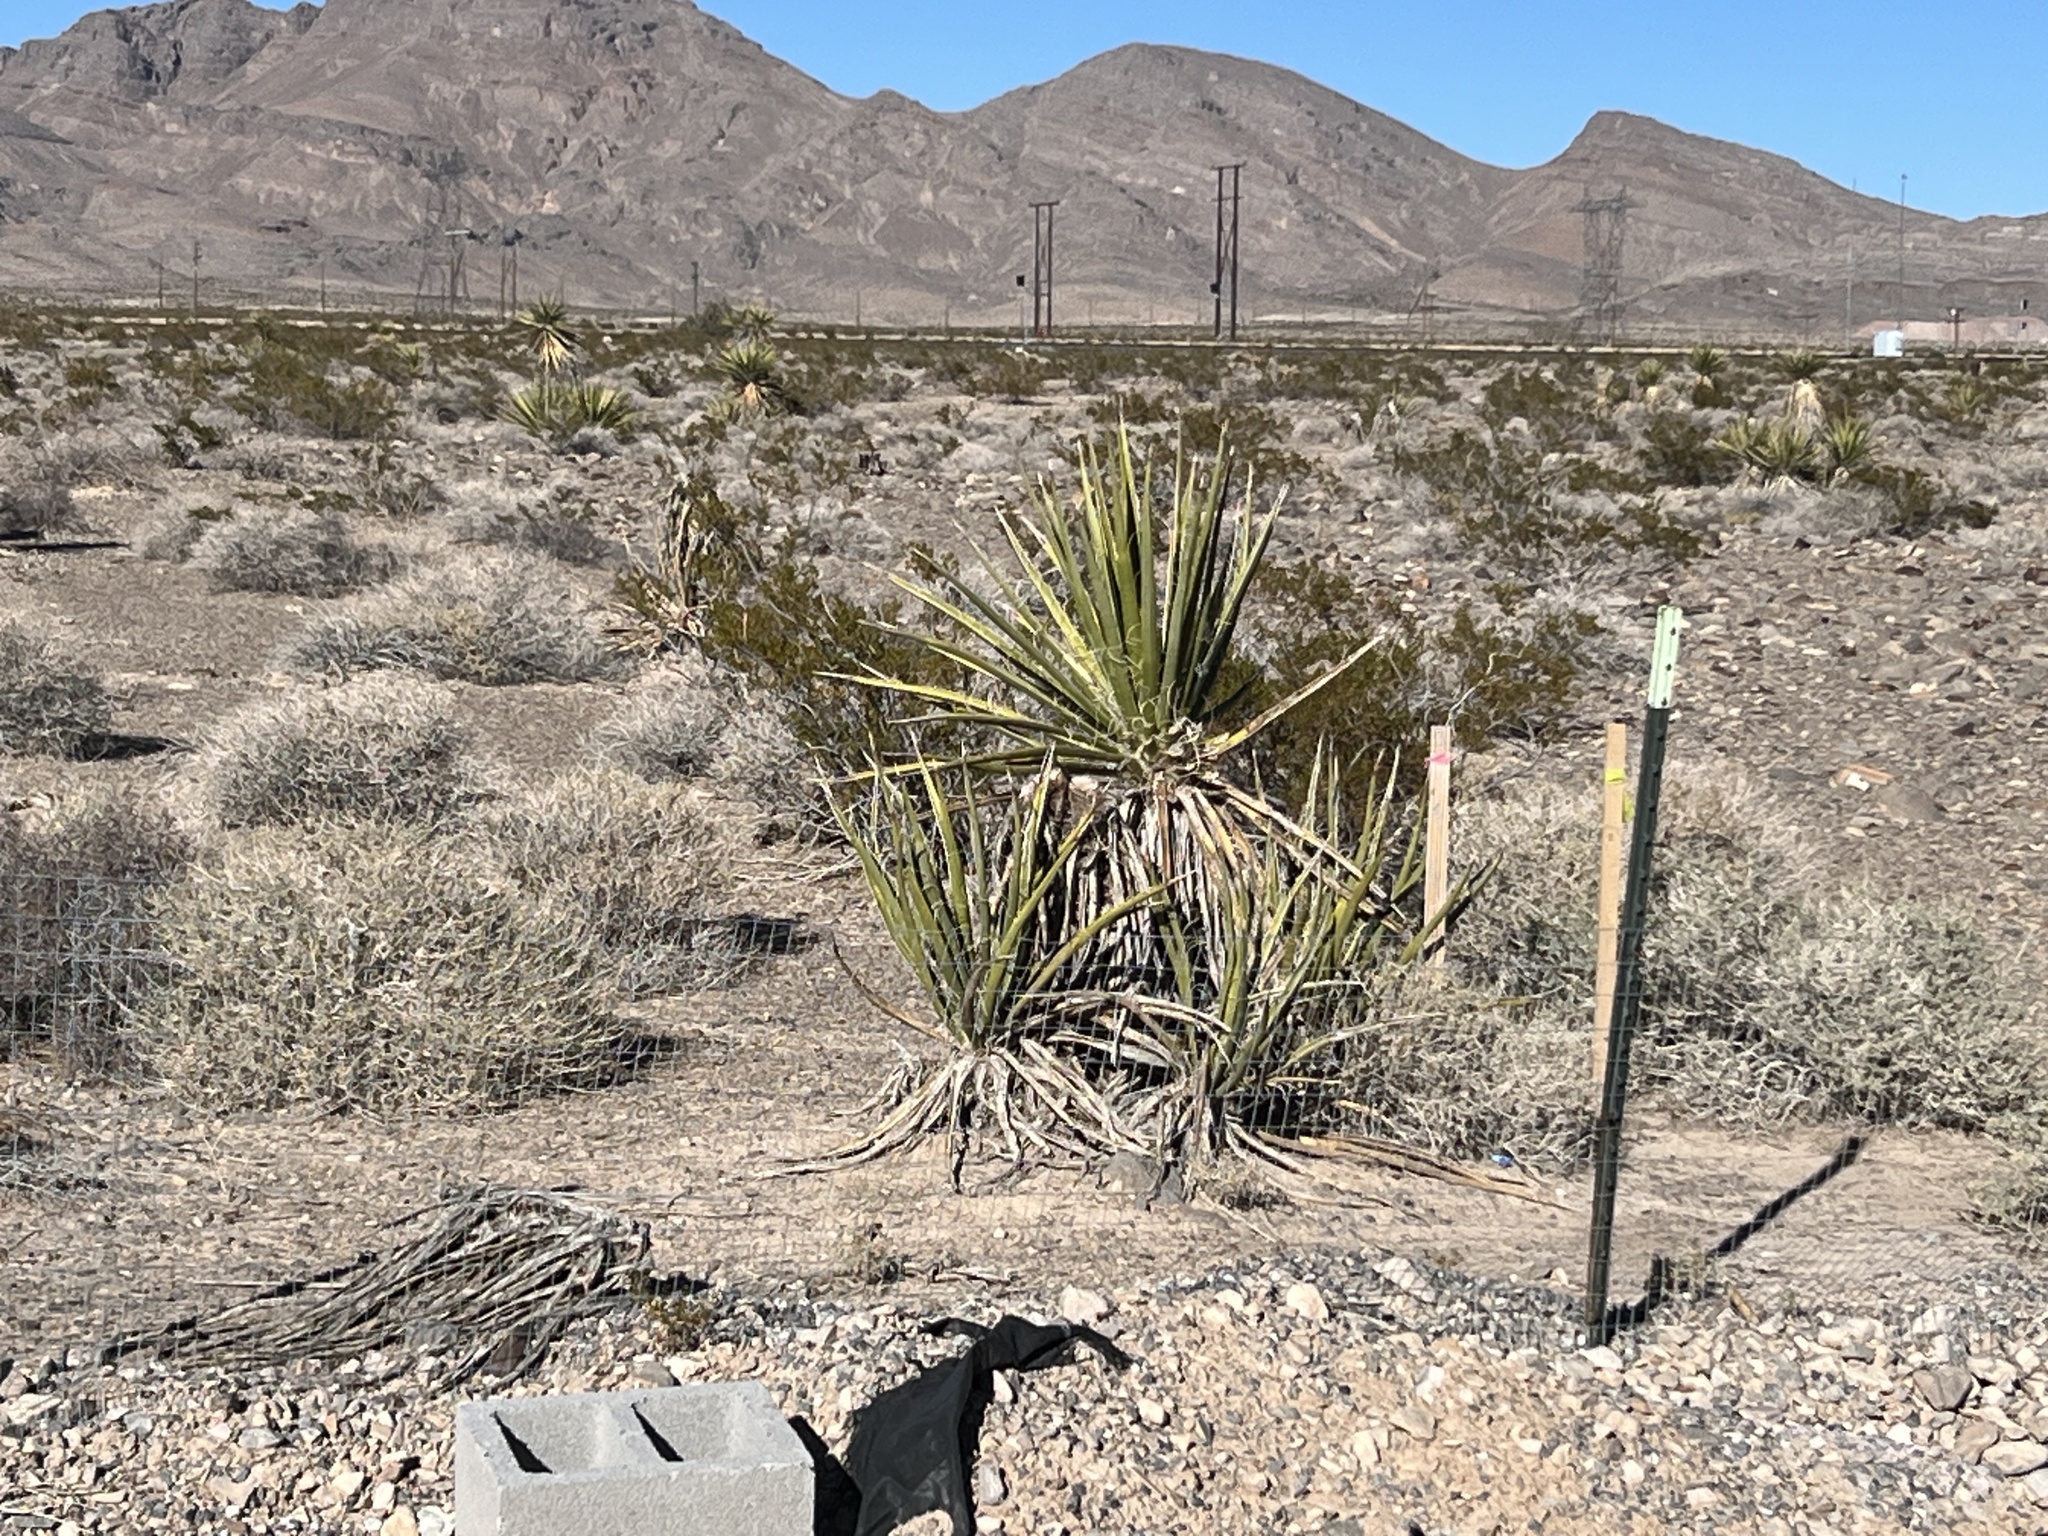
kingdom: Plantae
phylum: Tracheophyta
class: Liliopsida
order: Asparagales
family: Asparagaceae
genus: Yucca
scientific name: Yucca schidigera
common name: Mojave yucca
